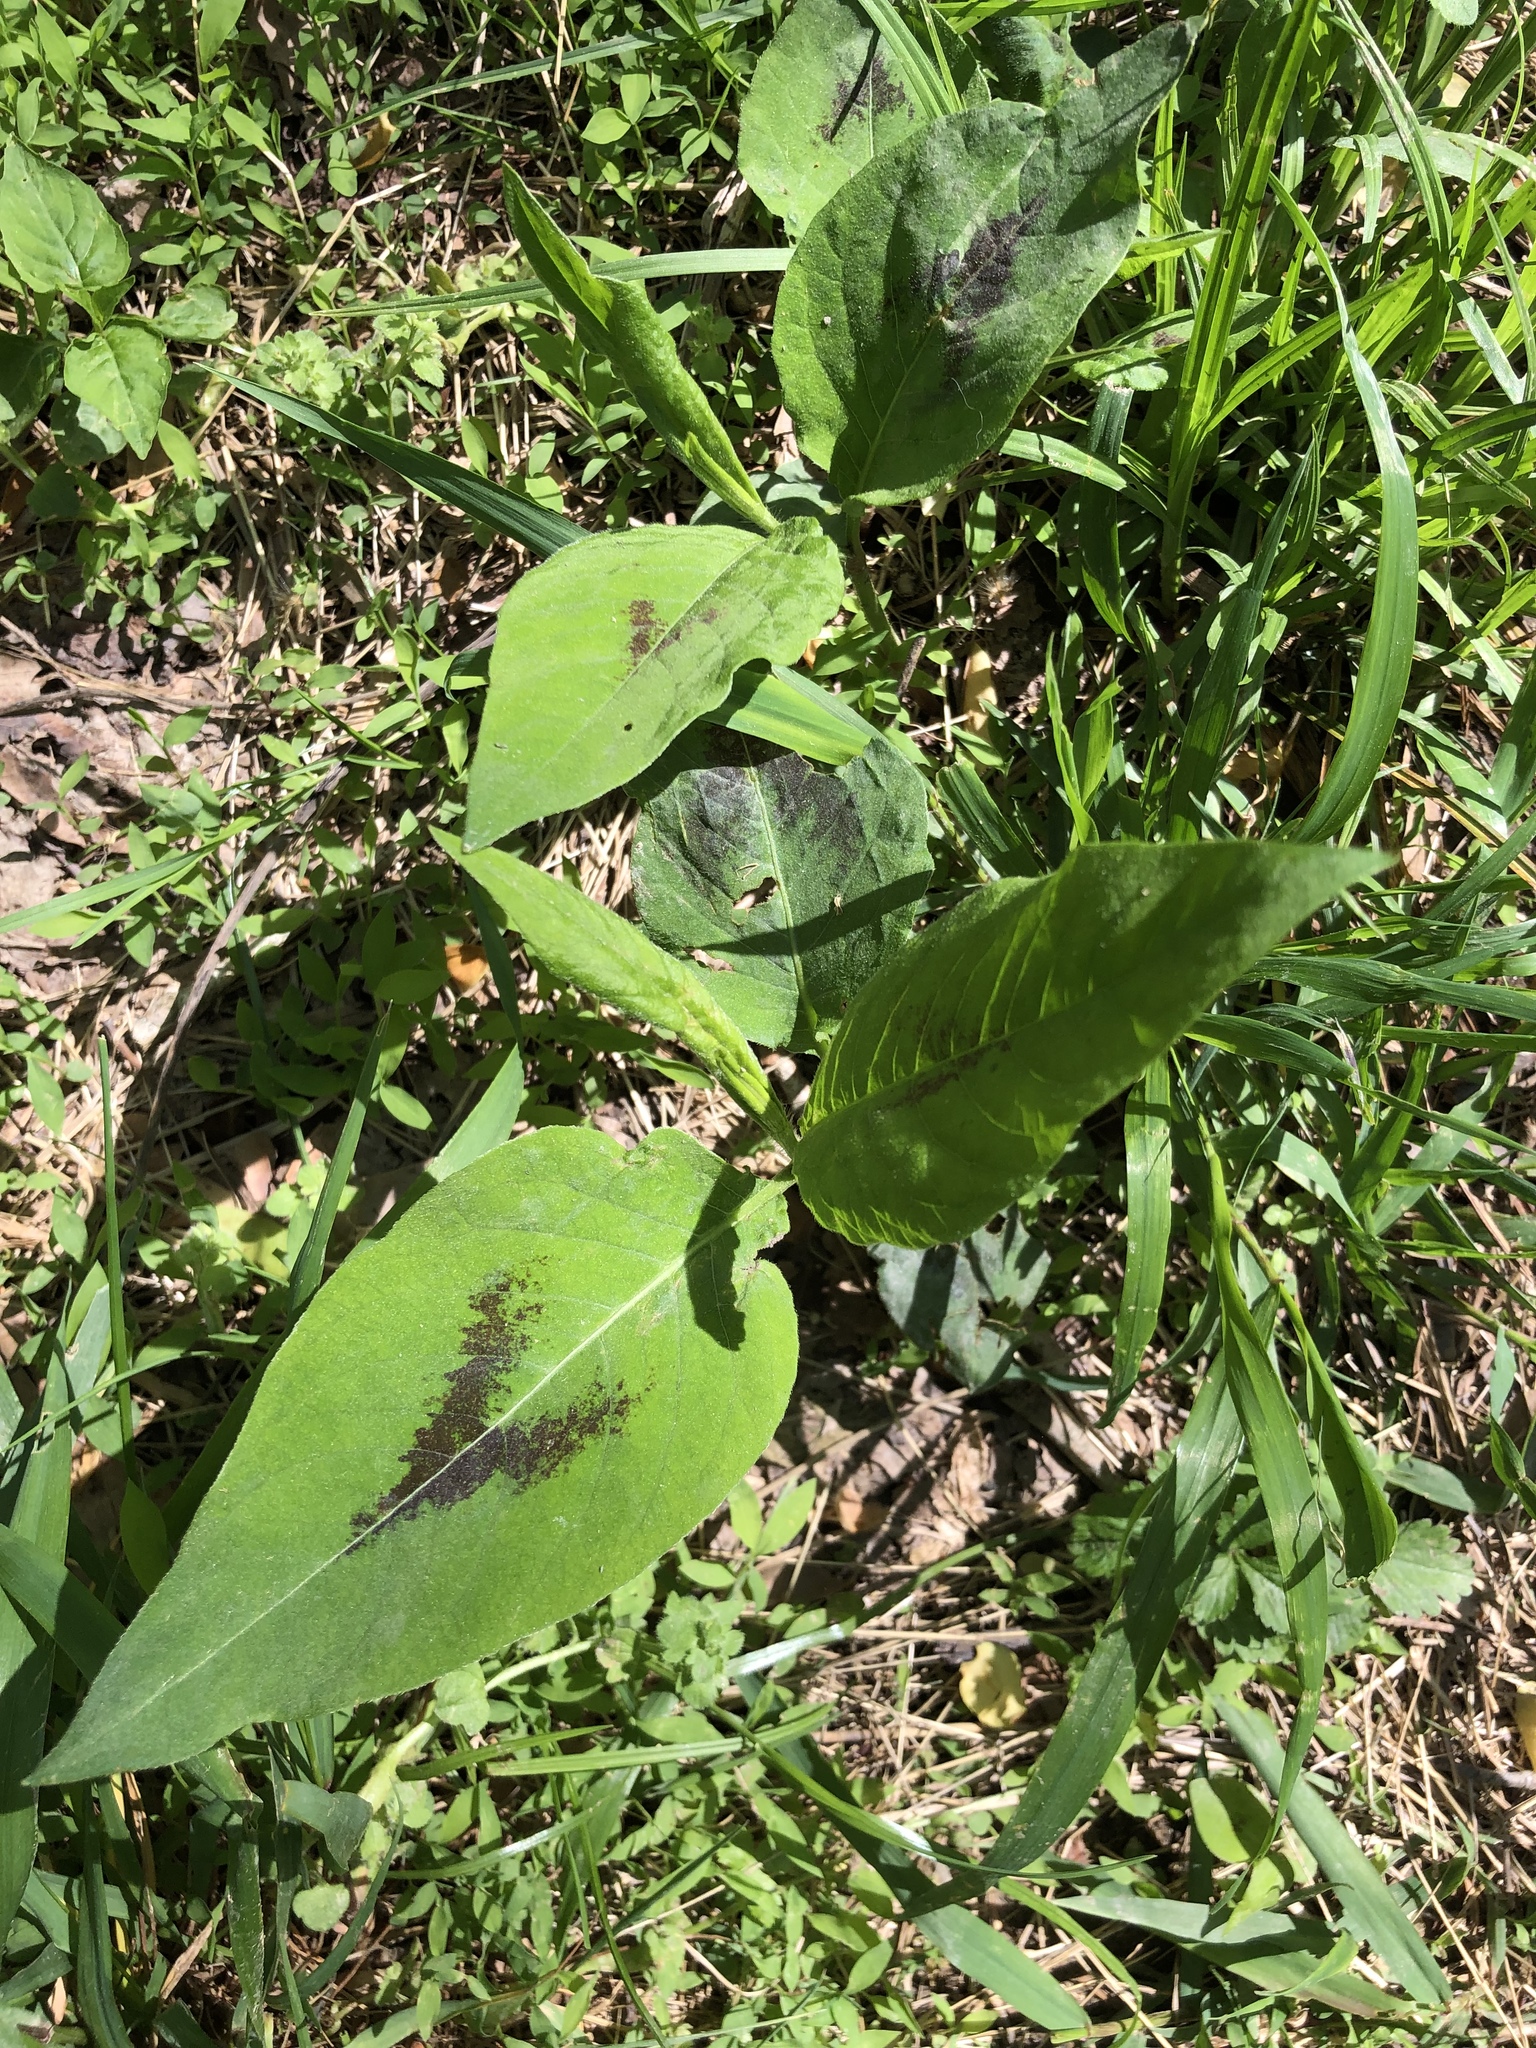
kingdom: Plantae
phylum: Tracheophyta
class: Magnoliopsida
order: Caryophyllales
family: Polygonaceae
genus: Persicaria
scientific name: Persicaria virginiana
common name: Jumpseed
